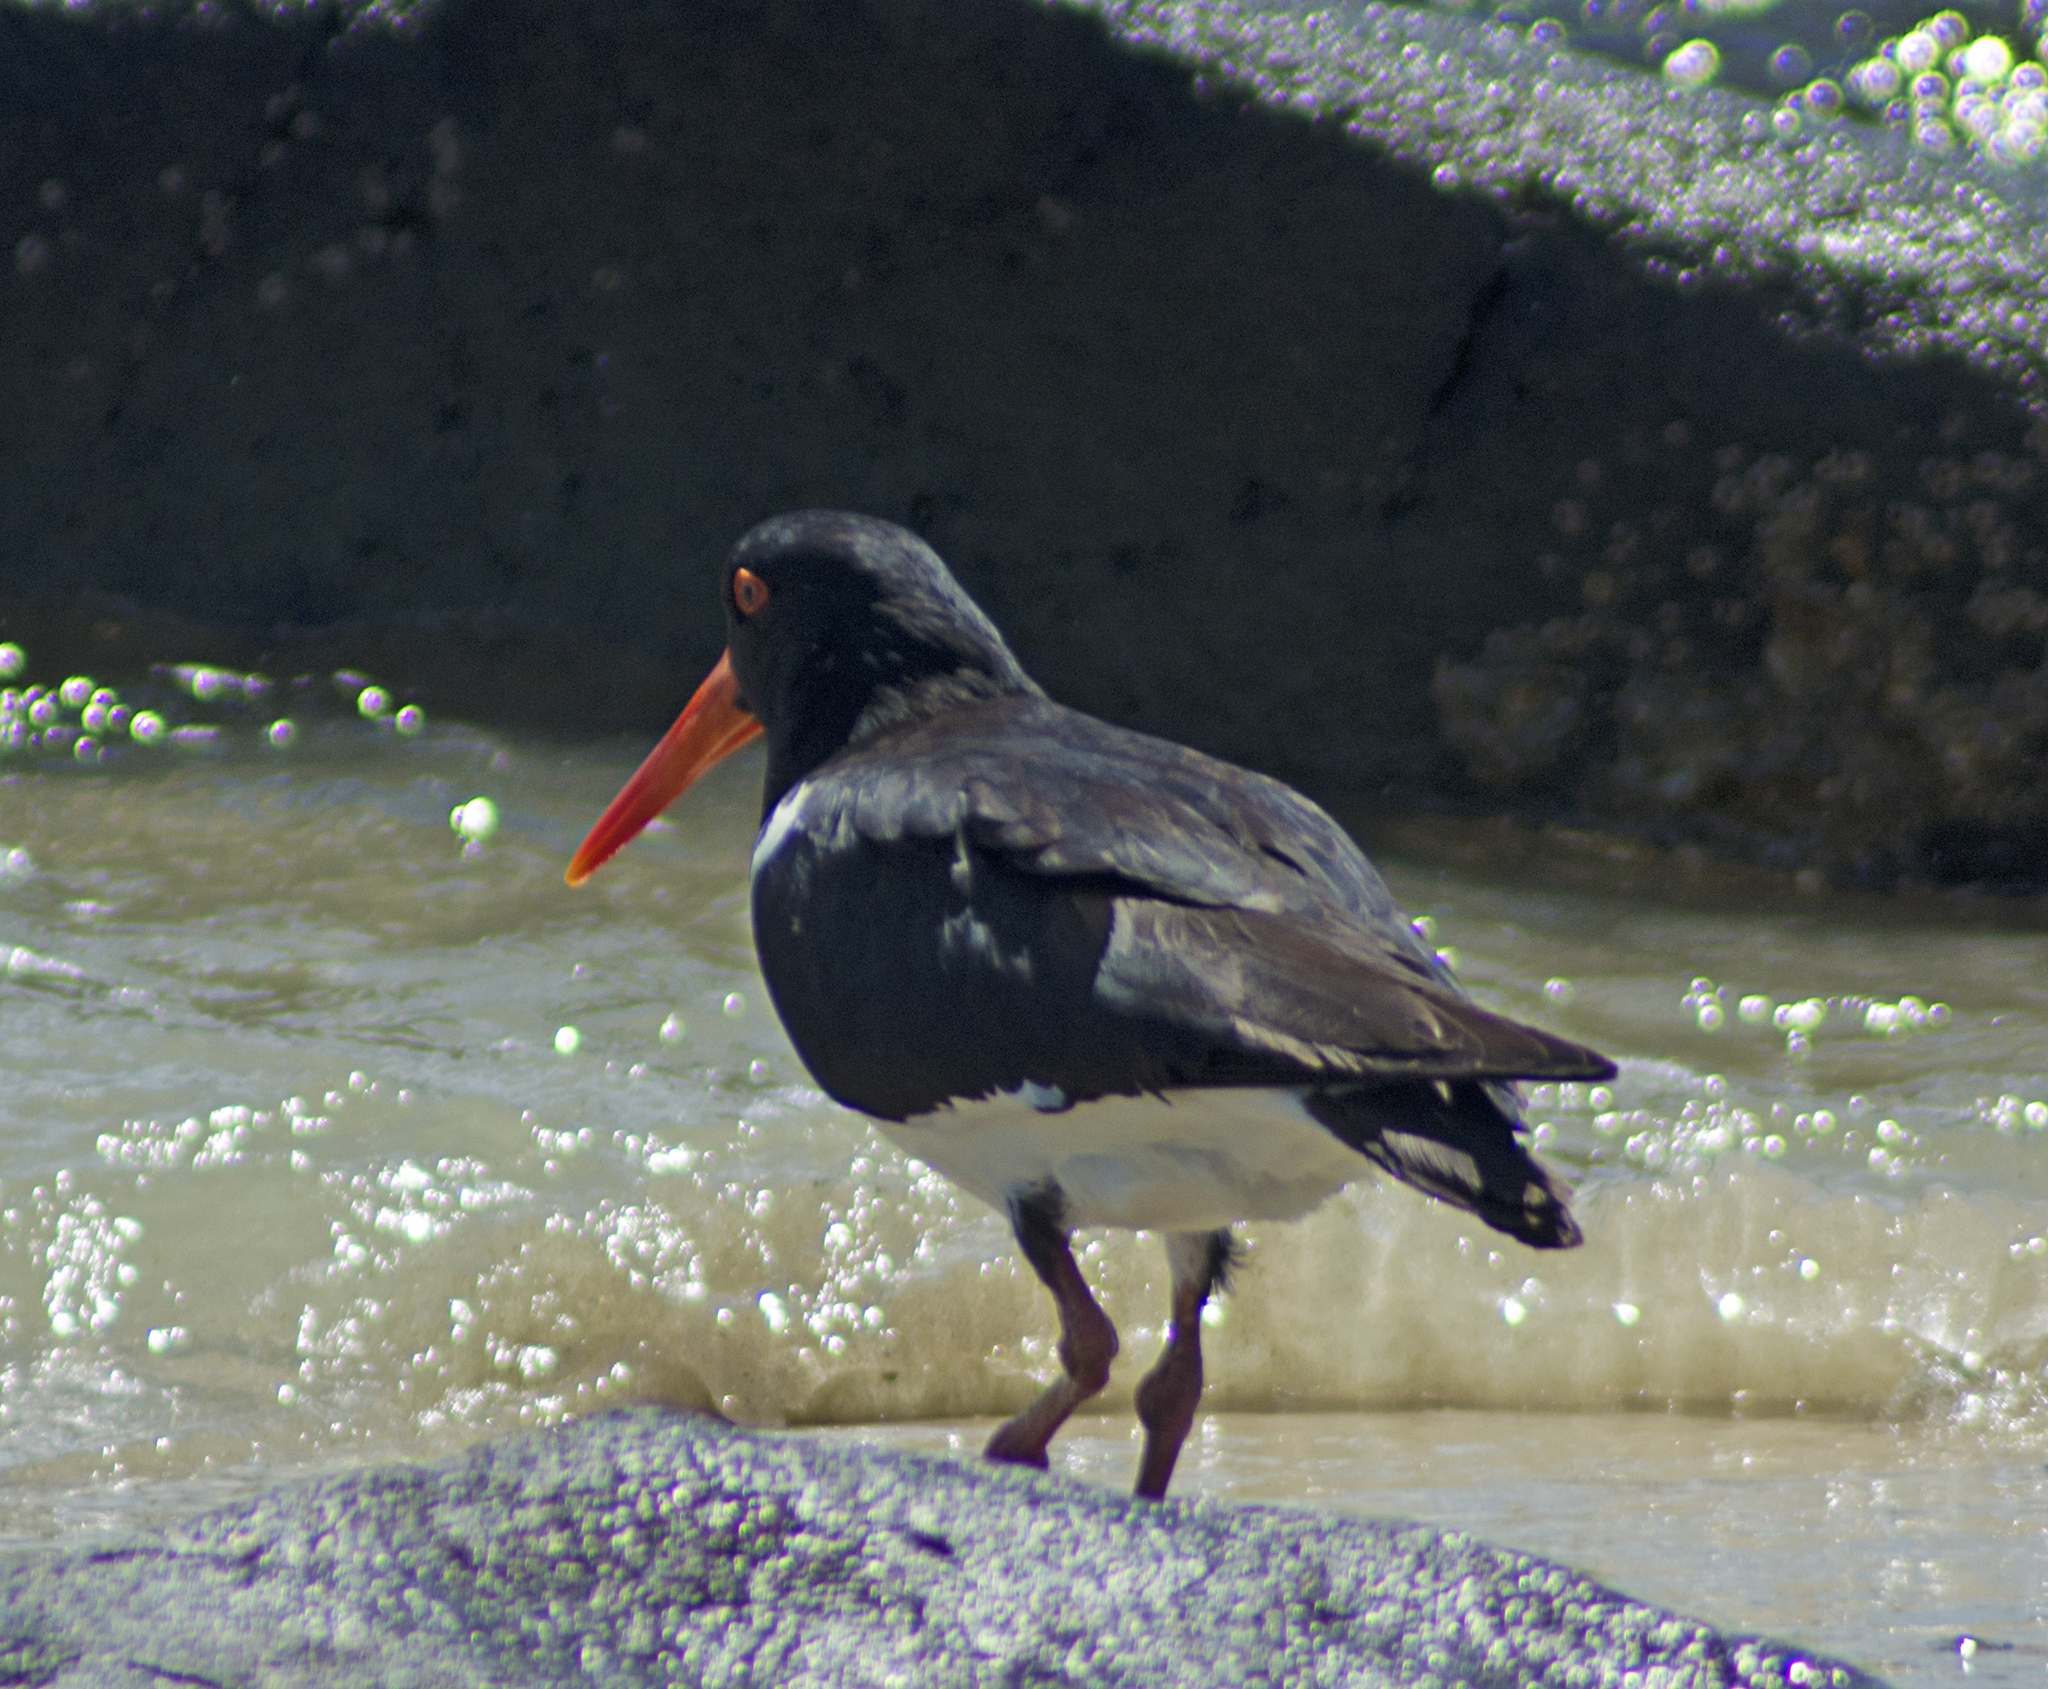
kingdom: Animalia
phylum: Chordata
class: Aves
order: Charadriiformes
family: Haematopodidae
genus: Haematopus
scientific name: Haematopus longirostris
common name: Pied oystercatcher
